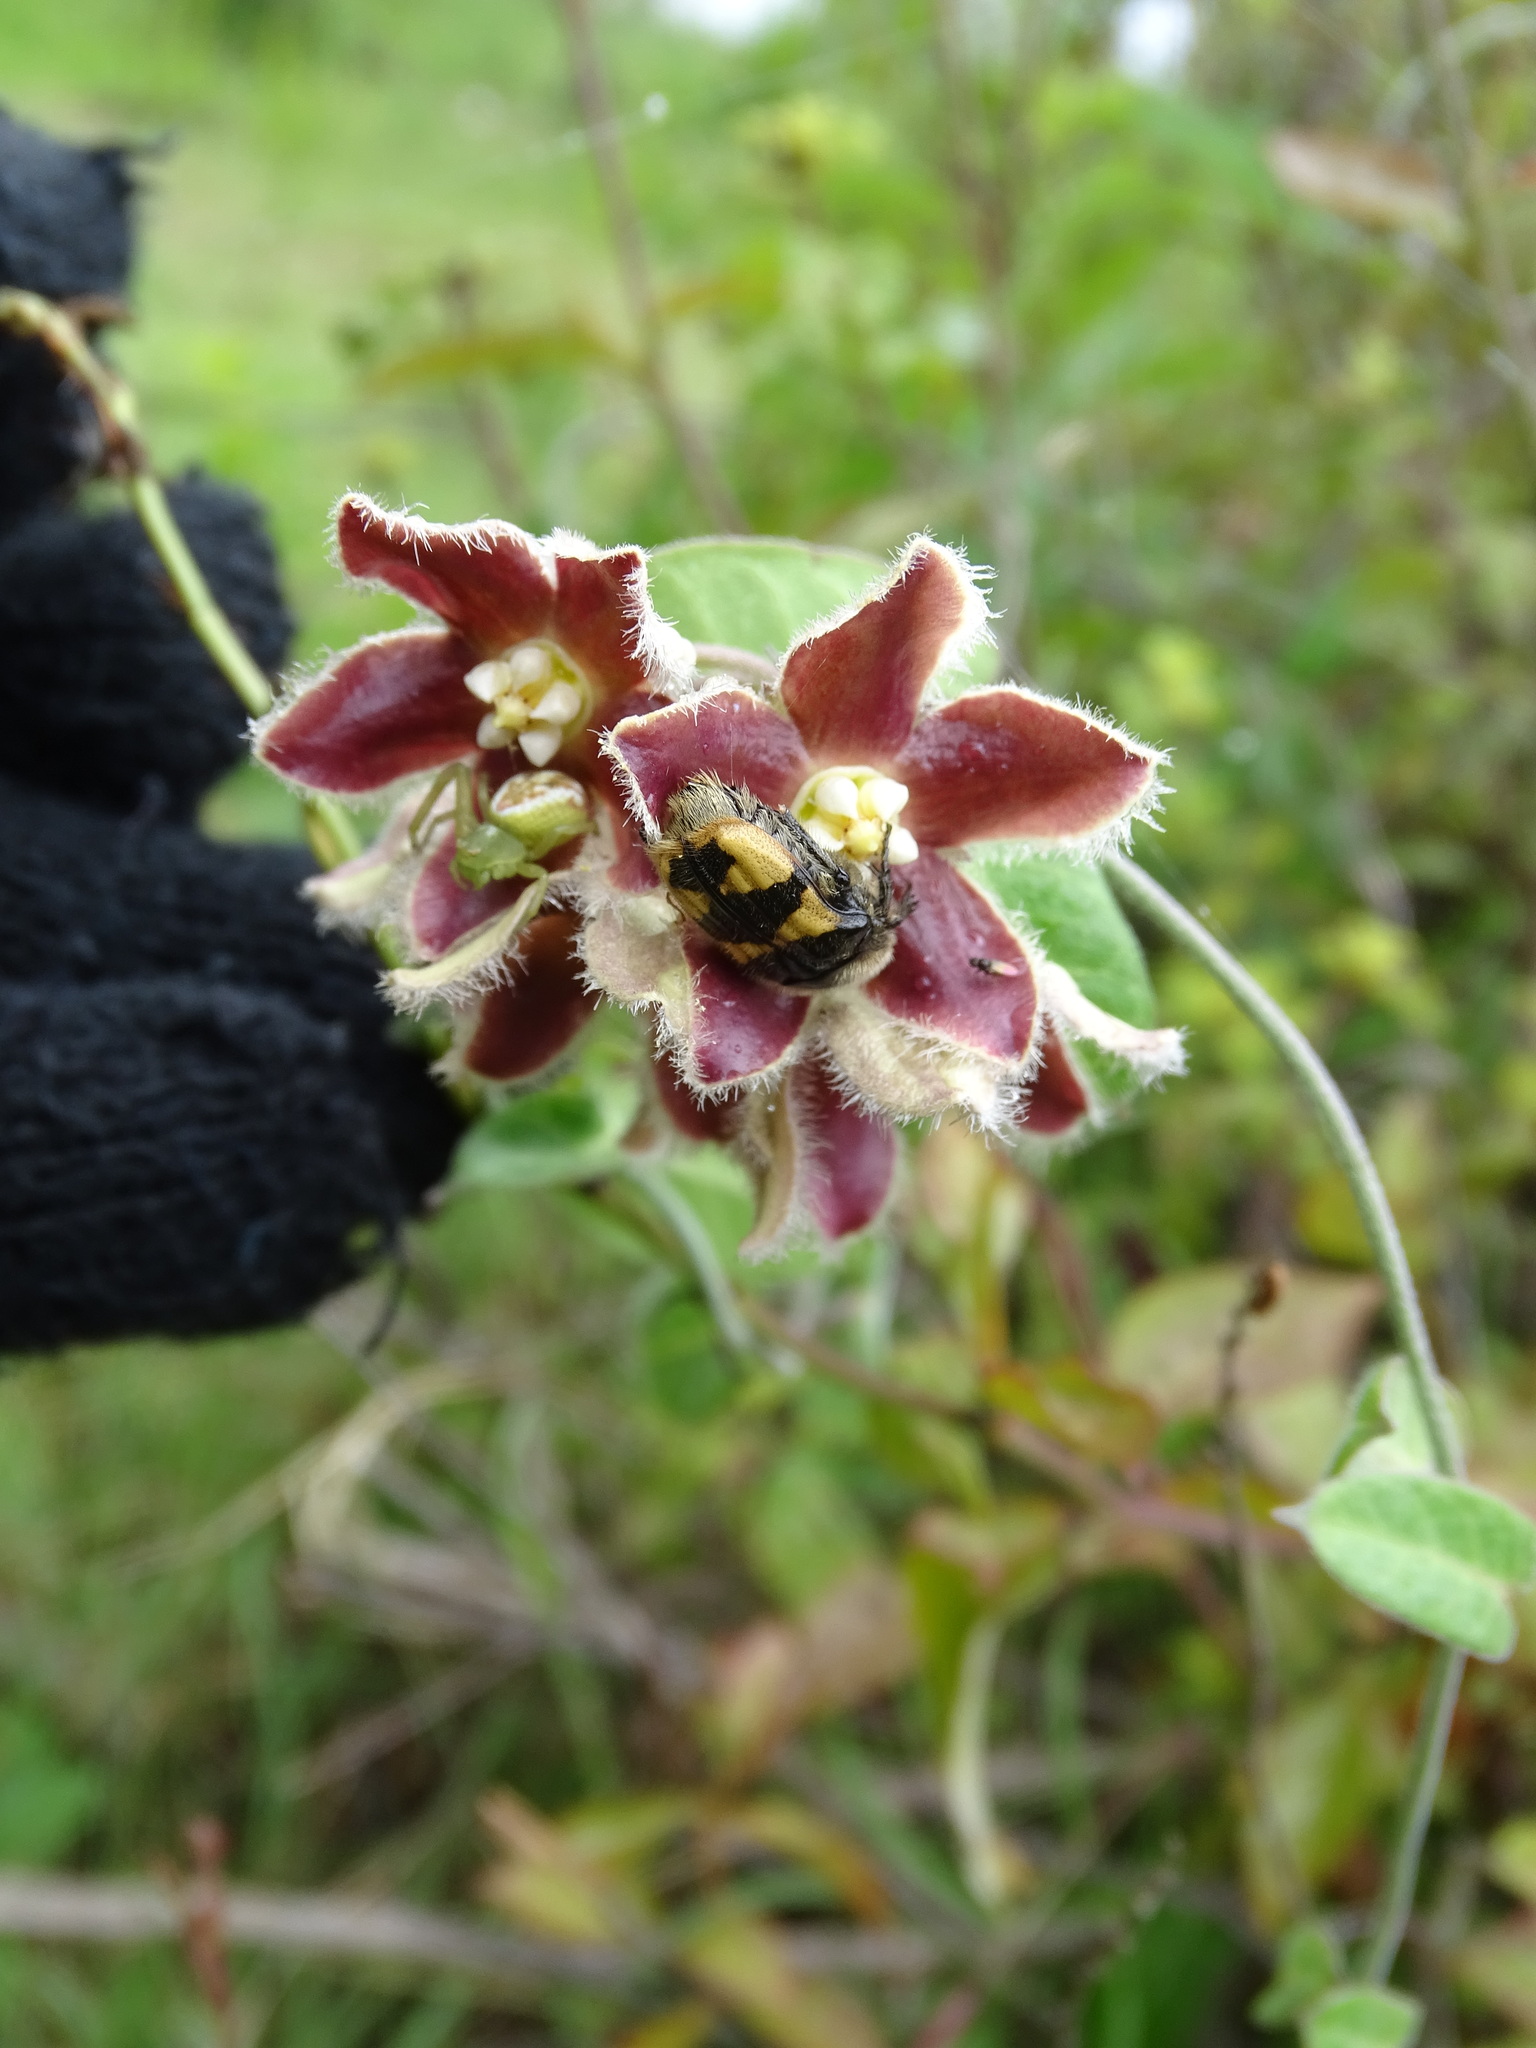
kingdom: Plantae
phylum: Tracheophyta
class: Magnoliopsida
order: Gentianales
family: Apocynaceae
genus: Funastrum
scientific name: Funastrum elegans
